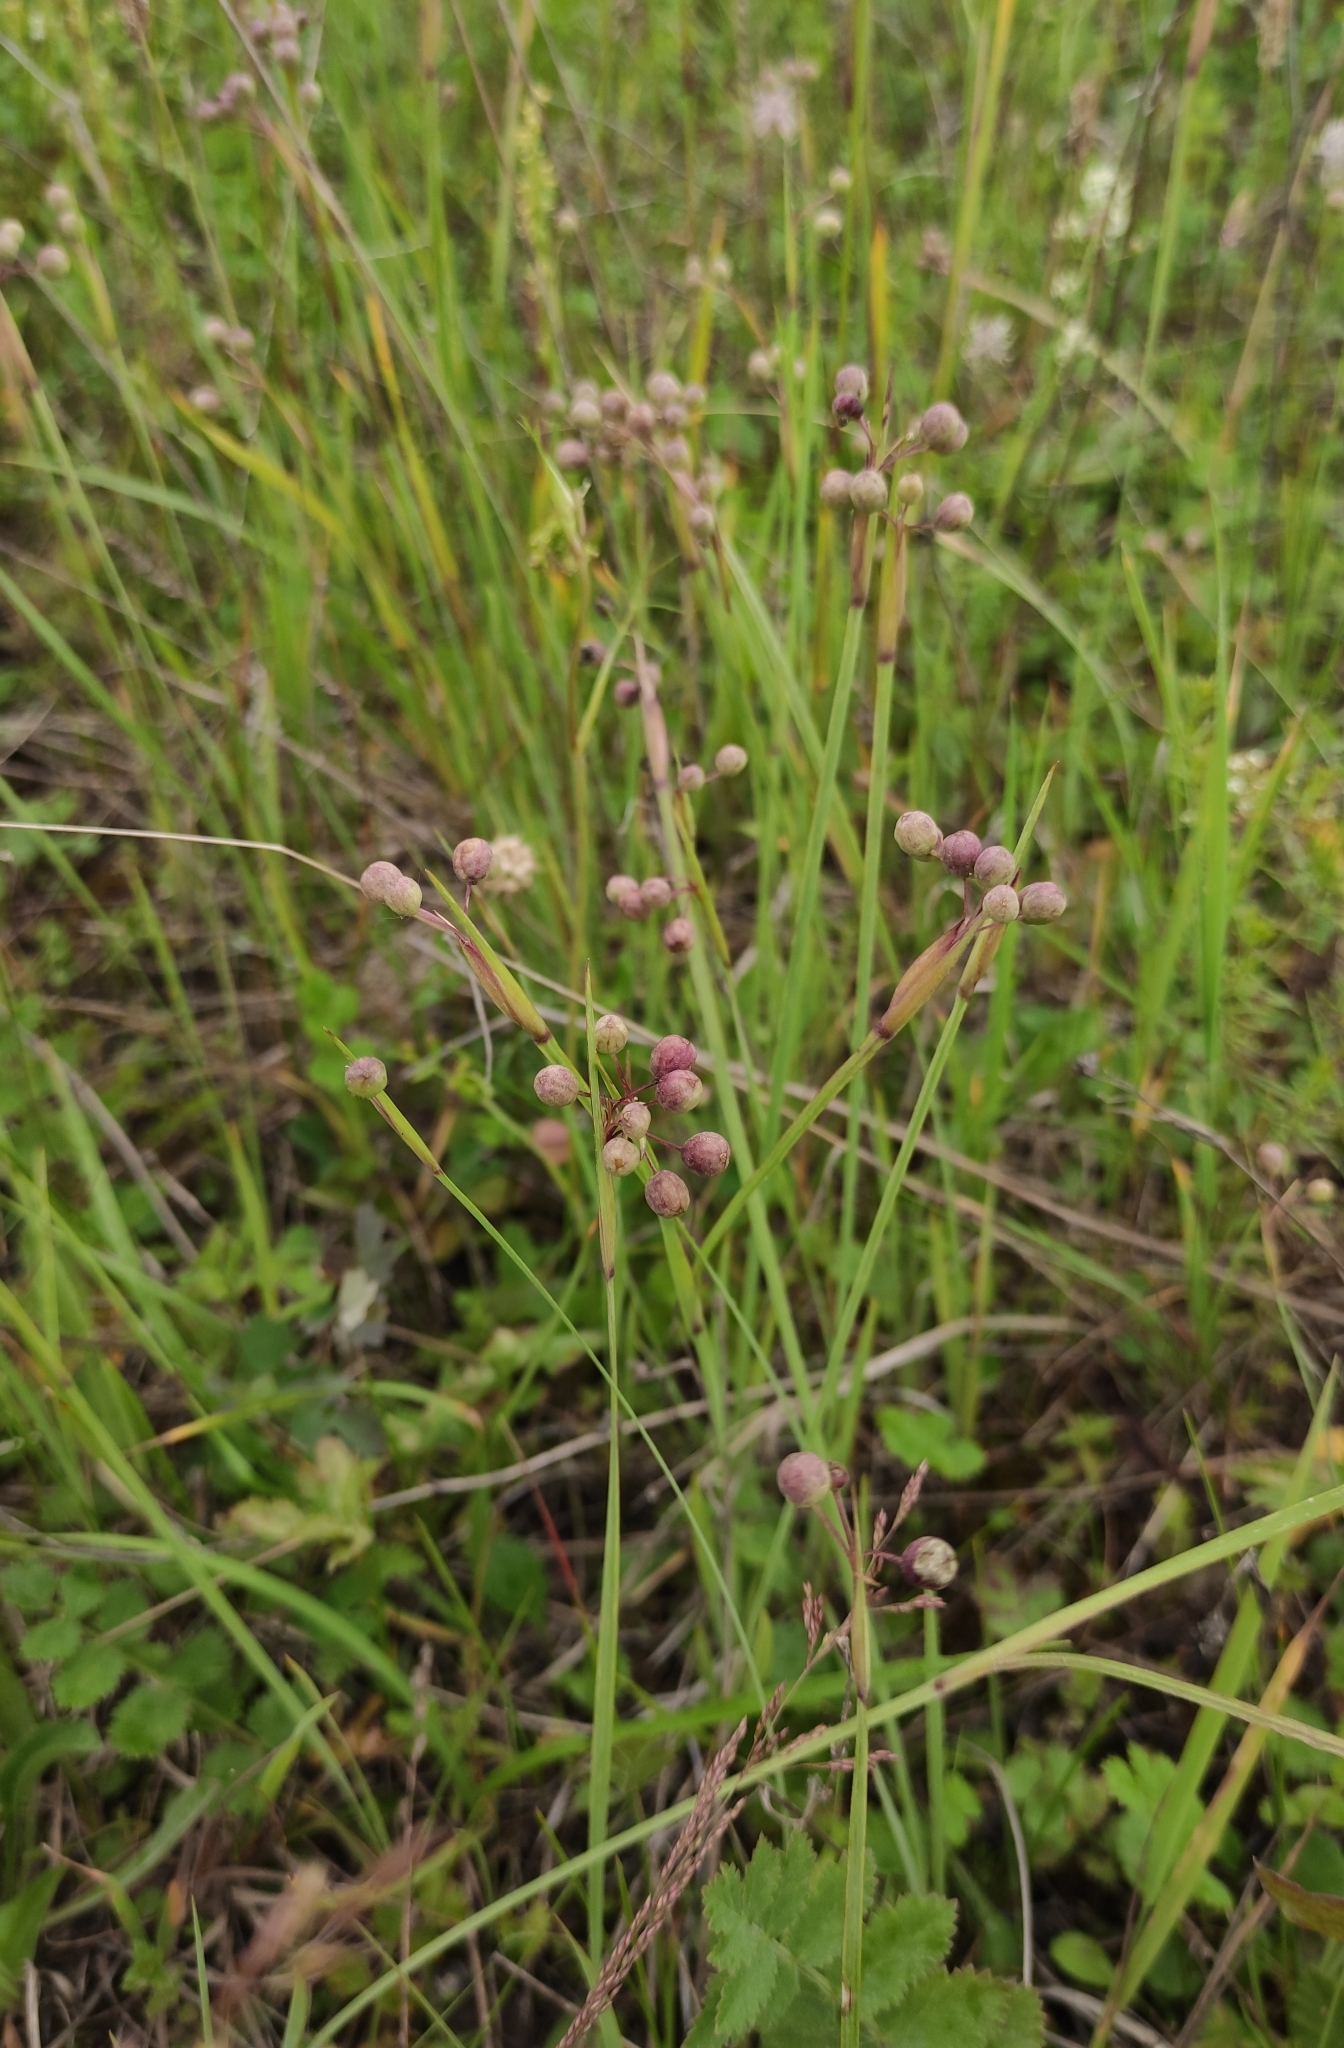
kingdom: Plantae
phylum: Tracheophyta
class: Liliopsida
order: Asparagales
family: Iridaceae
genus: Sisyrinchium
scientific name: Sisyrinchium montanum
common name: American blue-eyed-grass
